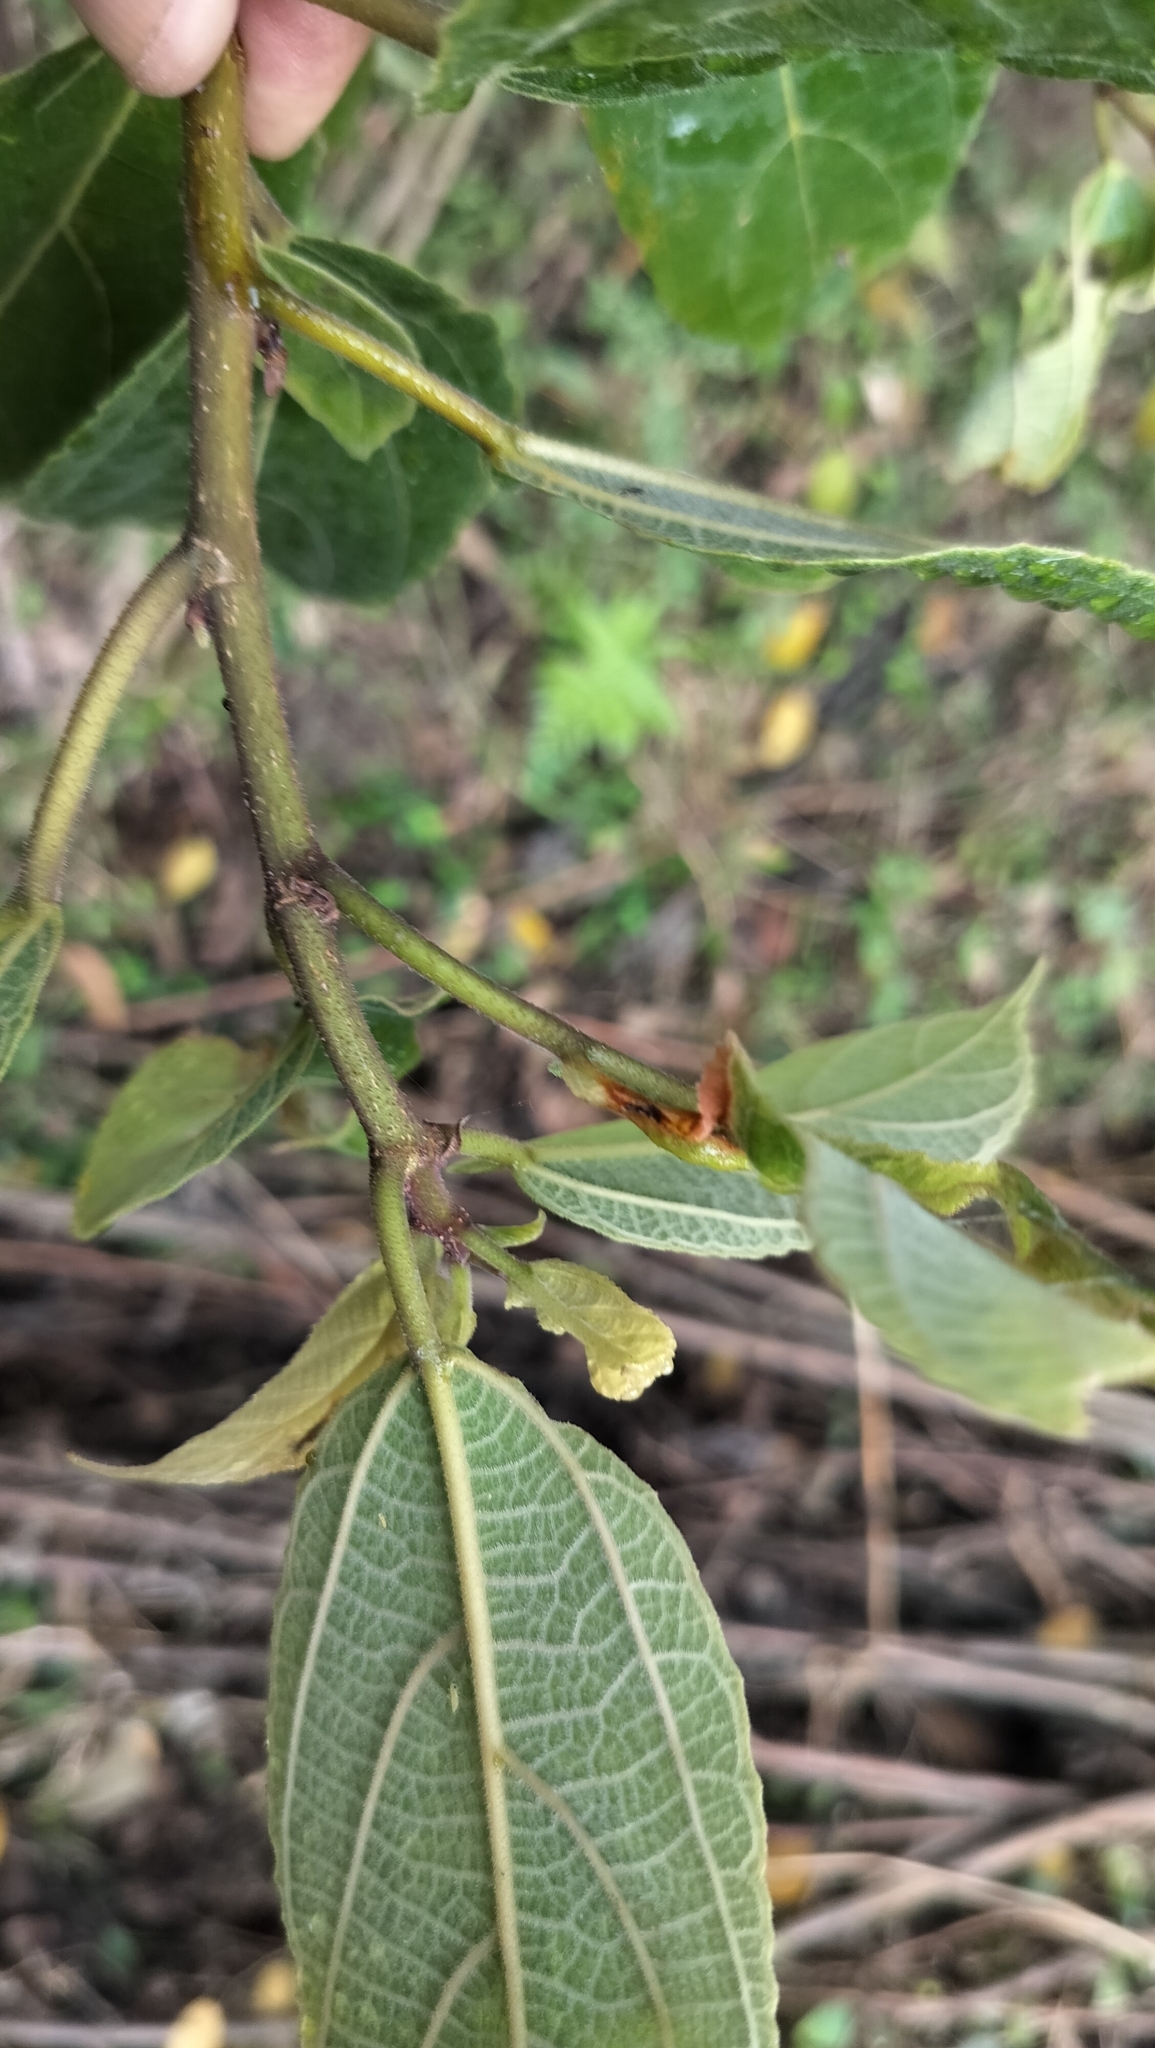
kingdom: Plantae
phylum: Tracheophyta
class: Magnoliopsida
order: Rosales
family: Moraceae
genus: Ficus
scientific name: Ficus exasperata
